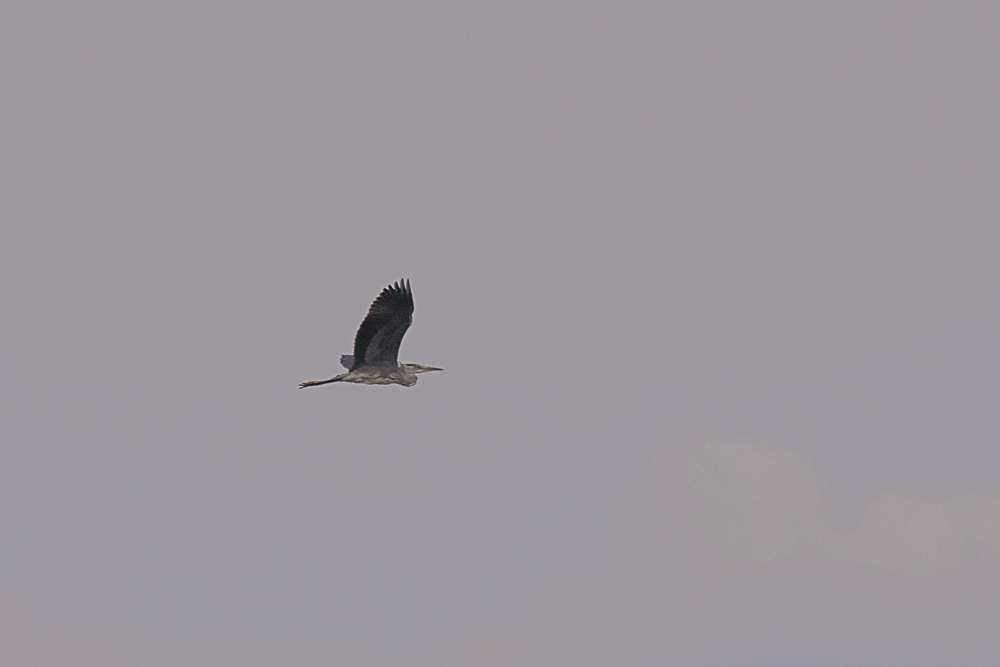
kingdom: Animalia
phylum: Chordata
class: Aves
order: Pelecaniformes
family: Ardeidae
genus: Ardea
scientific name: Ardea cinerea
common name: Grey heron
